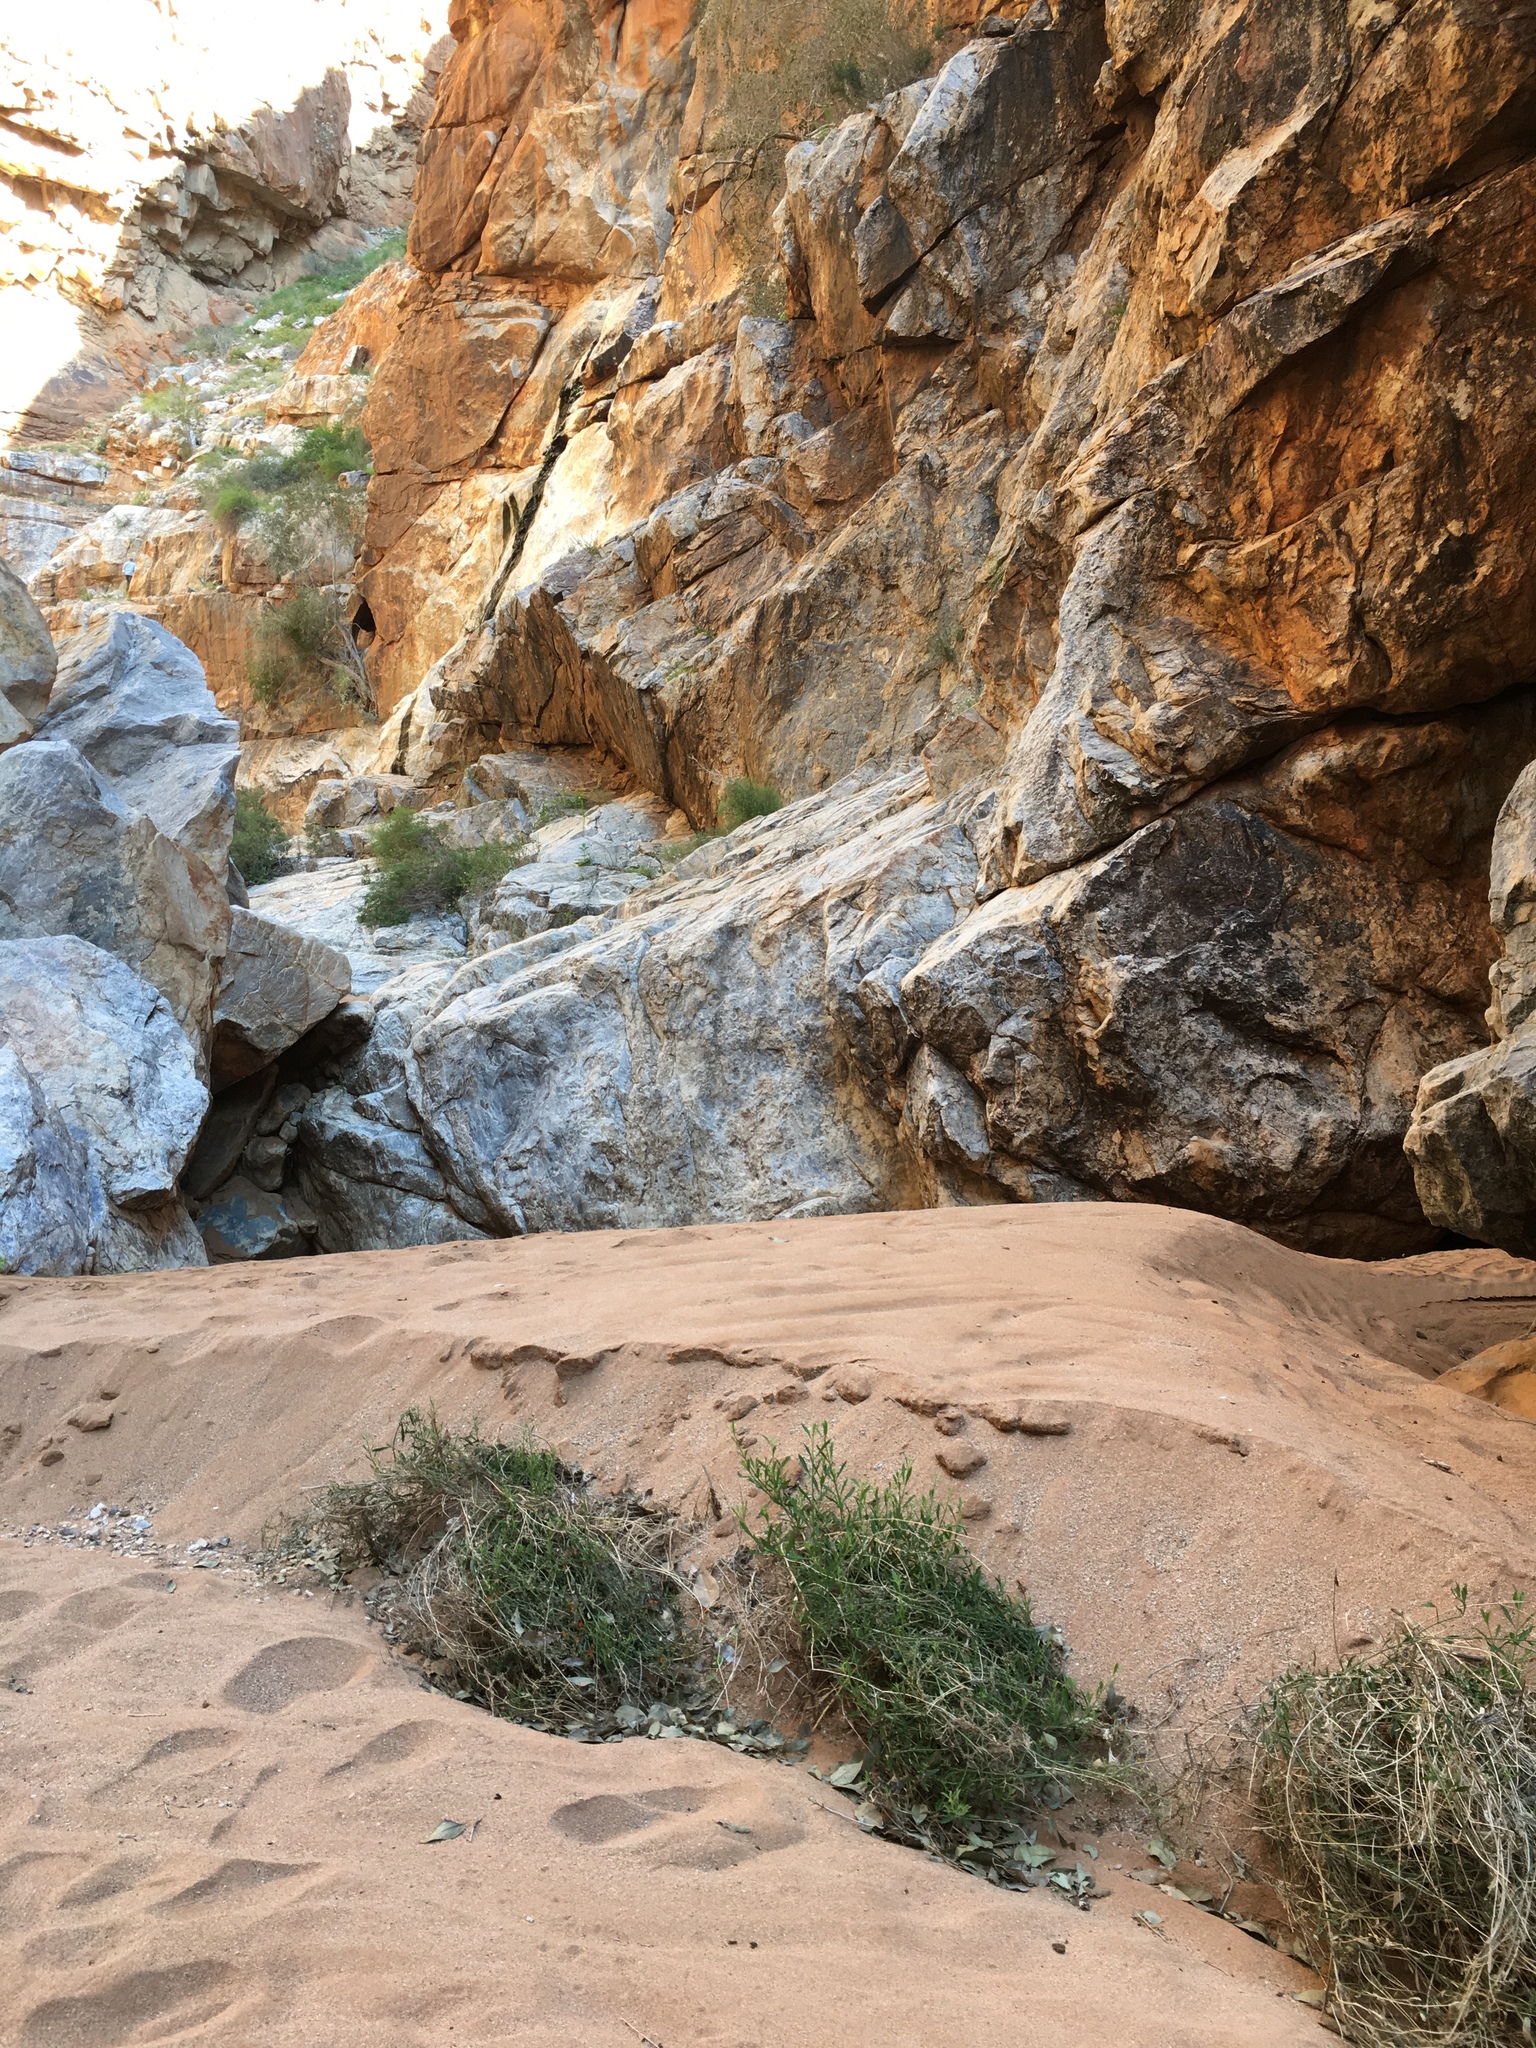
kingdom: Plantae
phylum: Tracheophyta
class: Magnoliopsida
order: Lamiales
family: Scrophulariaceae
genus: Manulea
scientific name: Manulea robusta
